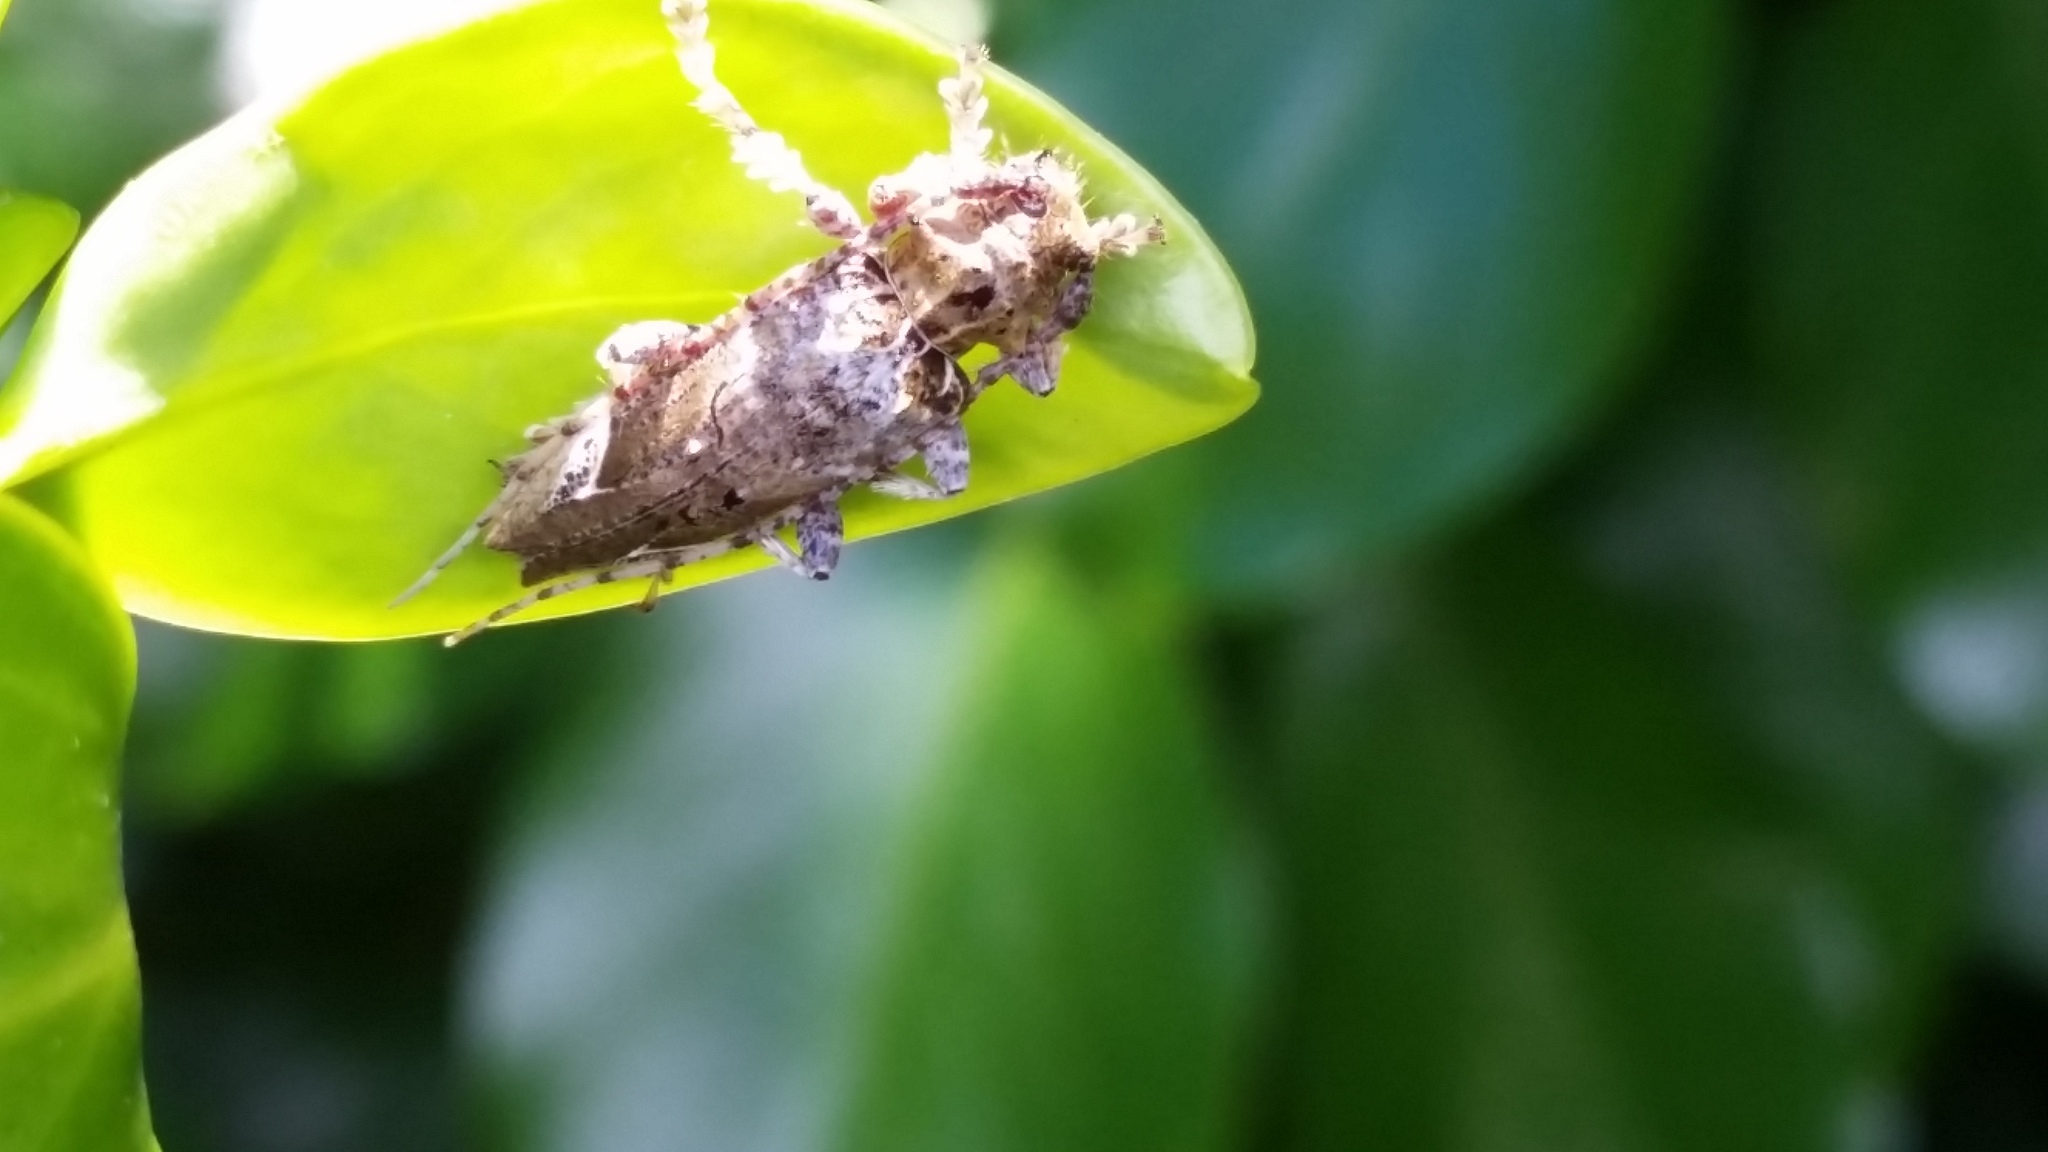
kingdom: Animalia
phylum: Arthropoda
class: Insecta
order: Coleoptera
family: Cerambycidae
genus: Tetrorea
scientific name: Tetrorea cilipes
